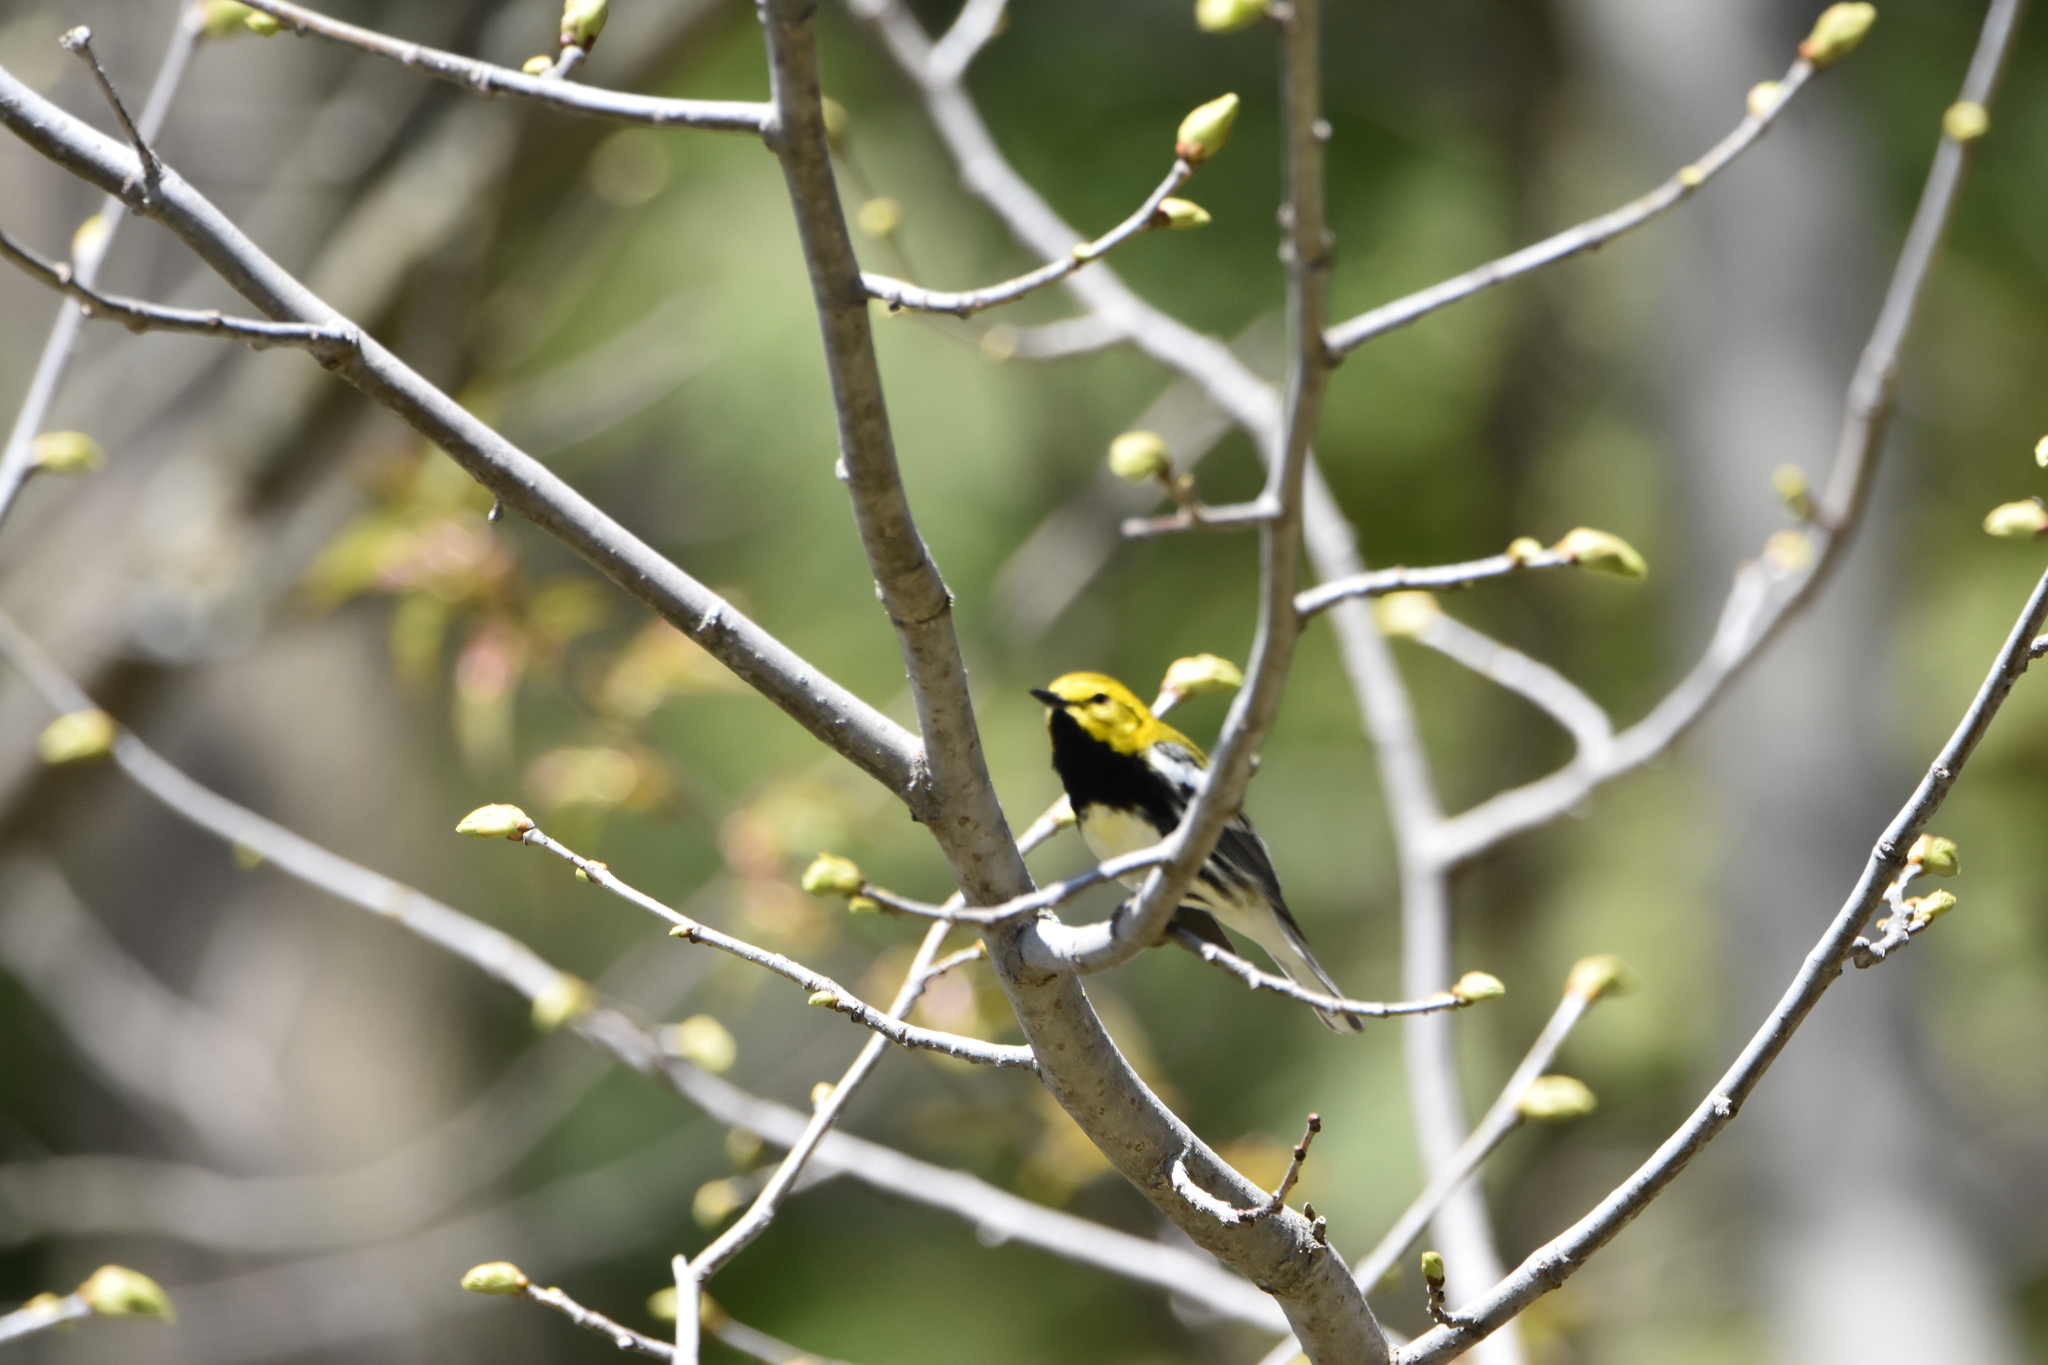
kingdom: Animalia
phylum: Chordata
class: Aves
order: Passeriformes
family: Parulidae
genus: Setophaga
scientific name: Setophaga virens
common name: Black-throated green warbler
